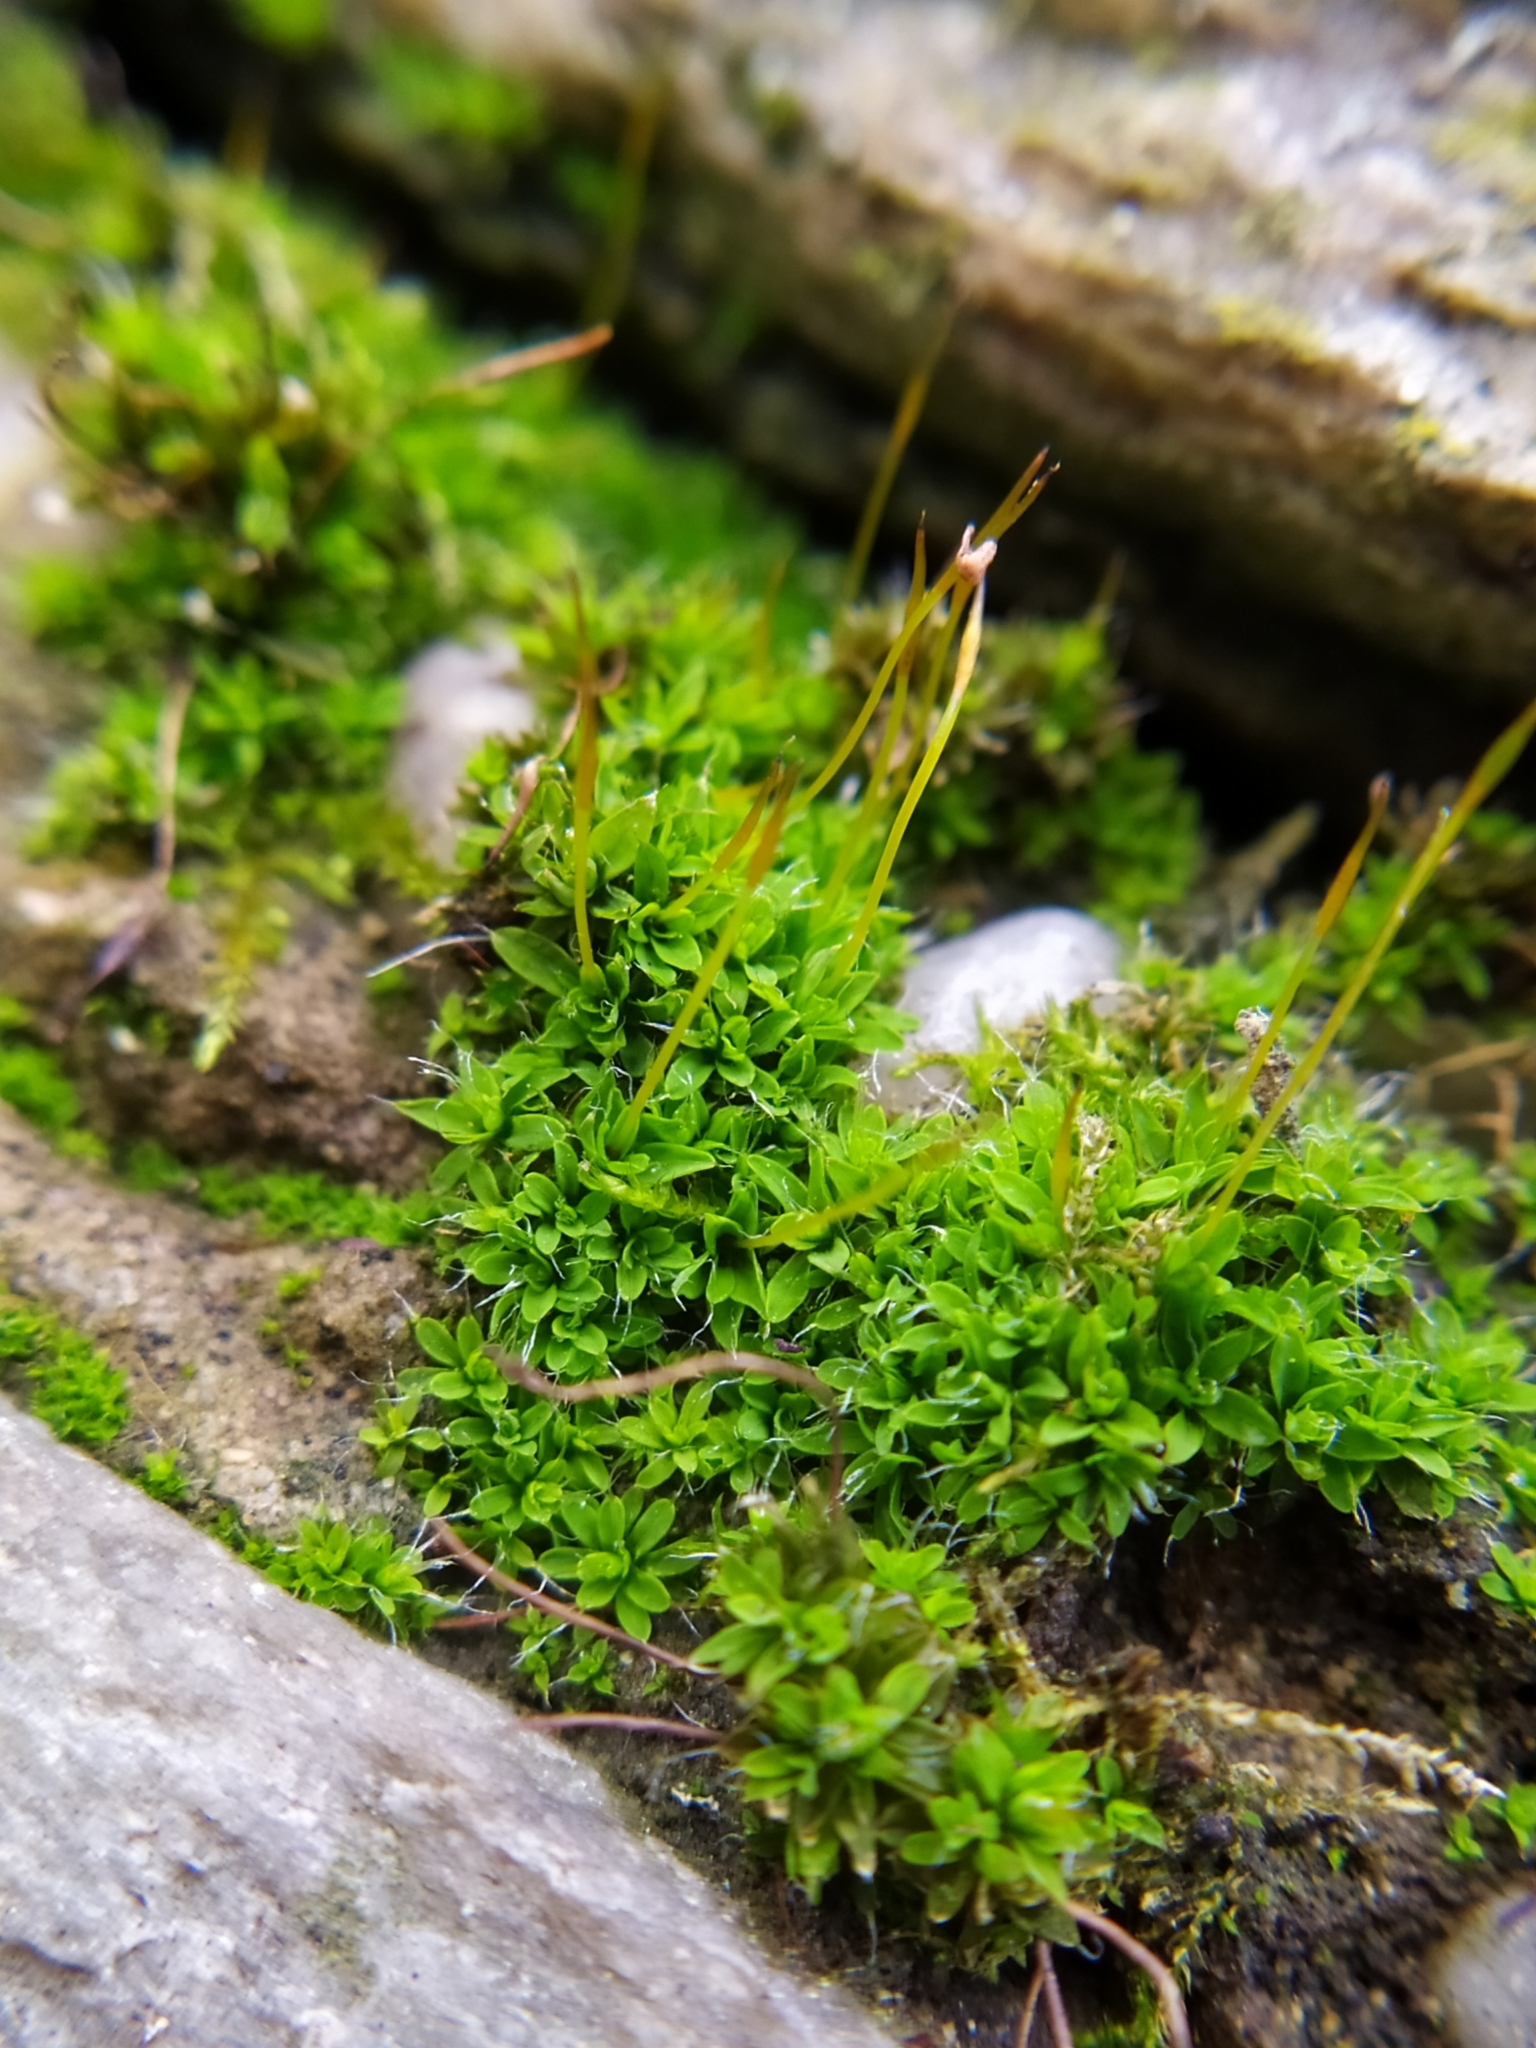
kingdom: Plantae
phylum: Bryophyta
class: Bryopsida
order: Pottiales
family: Pottiaceae
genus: Tortula
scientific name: Tortula muralis
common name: Wall screw-moss
